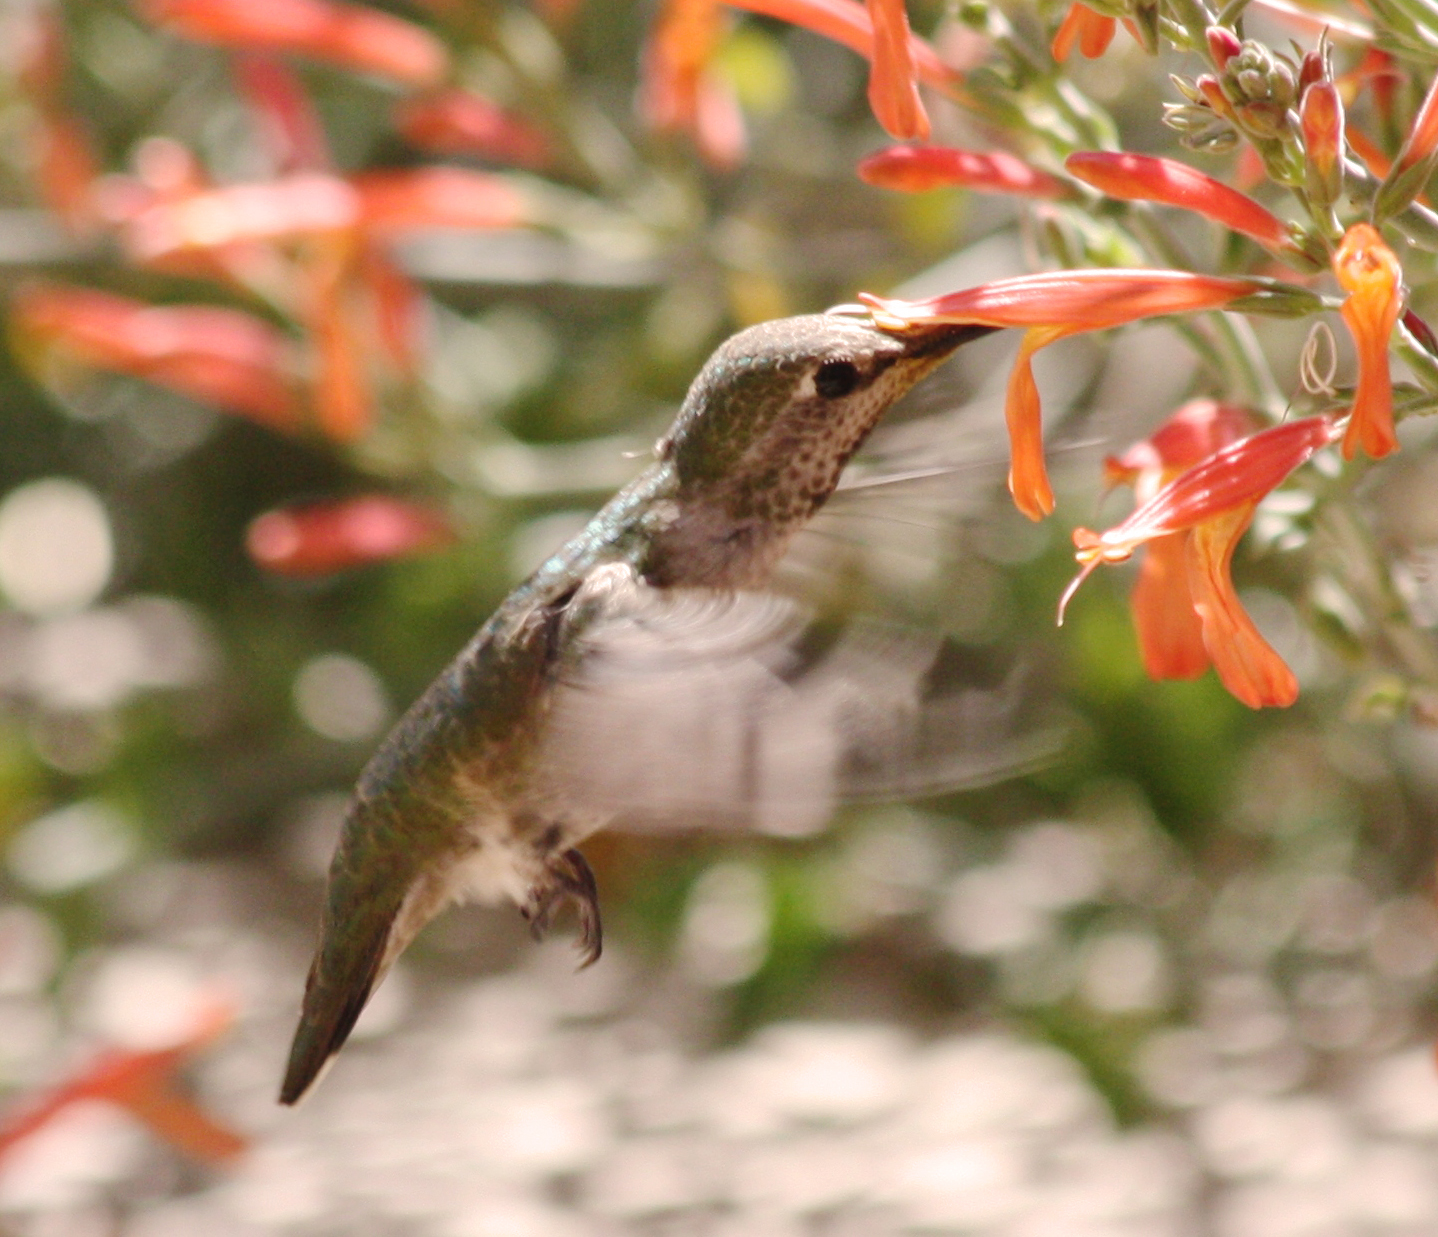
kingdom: Animalia
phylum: Chordata
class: Aves
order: Apodiformes
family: Trochilidae
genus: Calypte
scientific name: Calypte anna
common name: Anna's hummingbird
